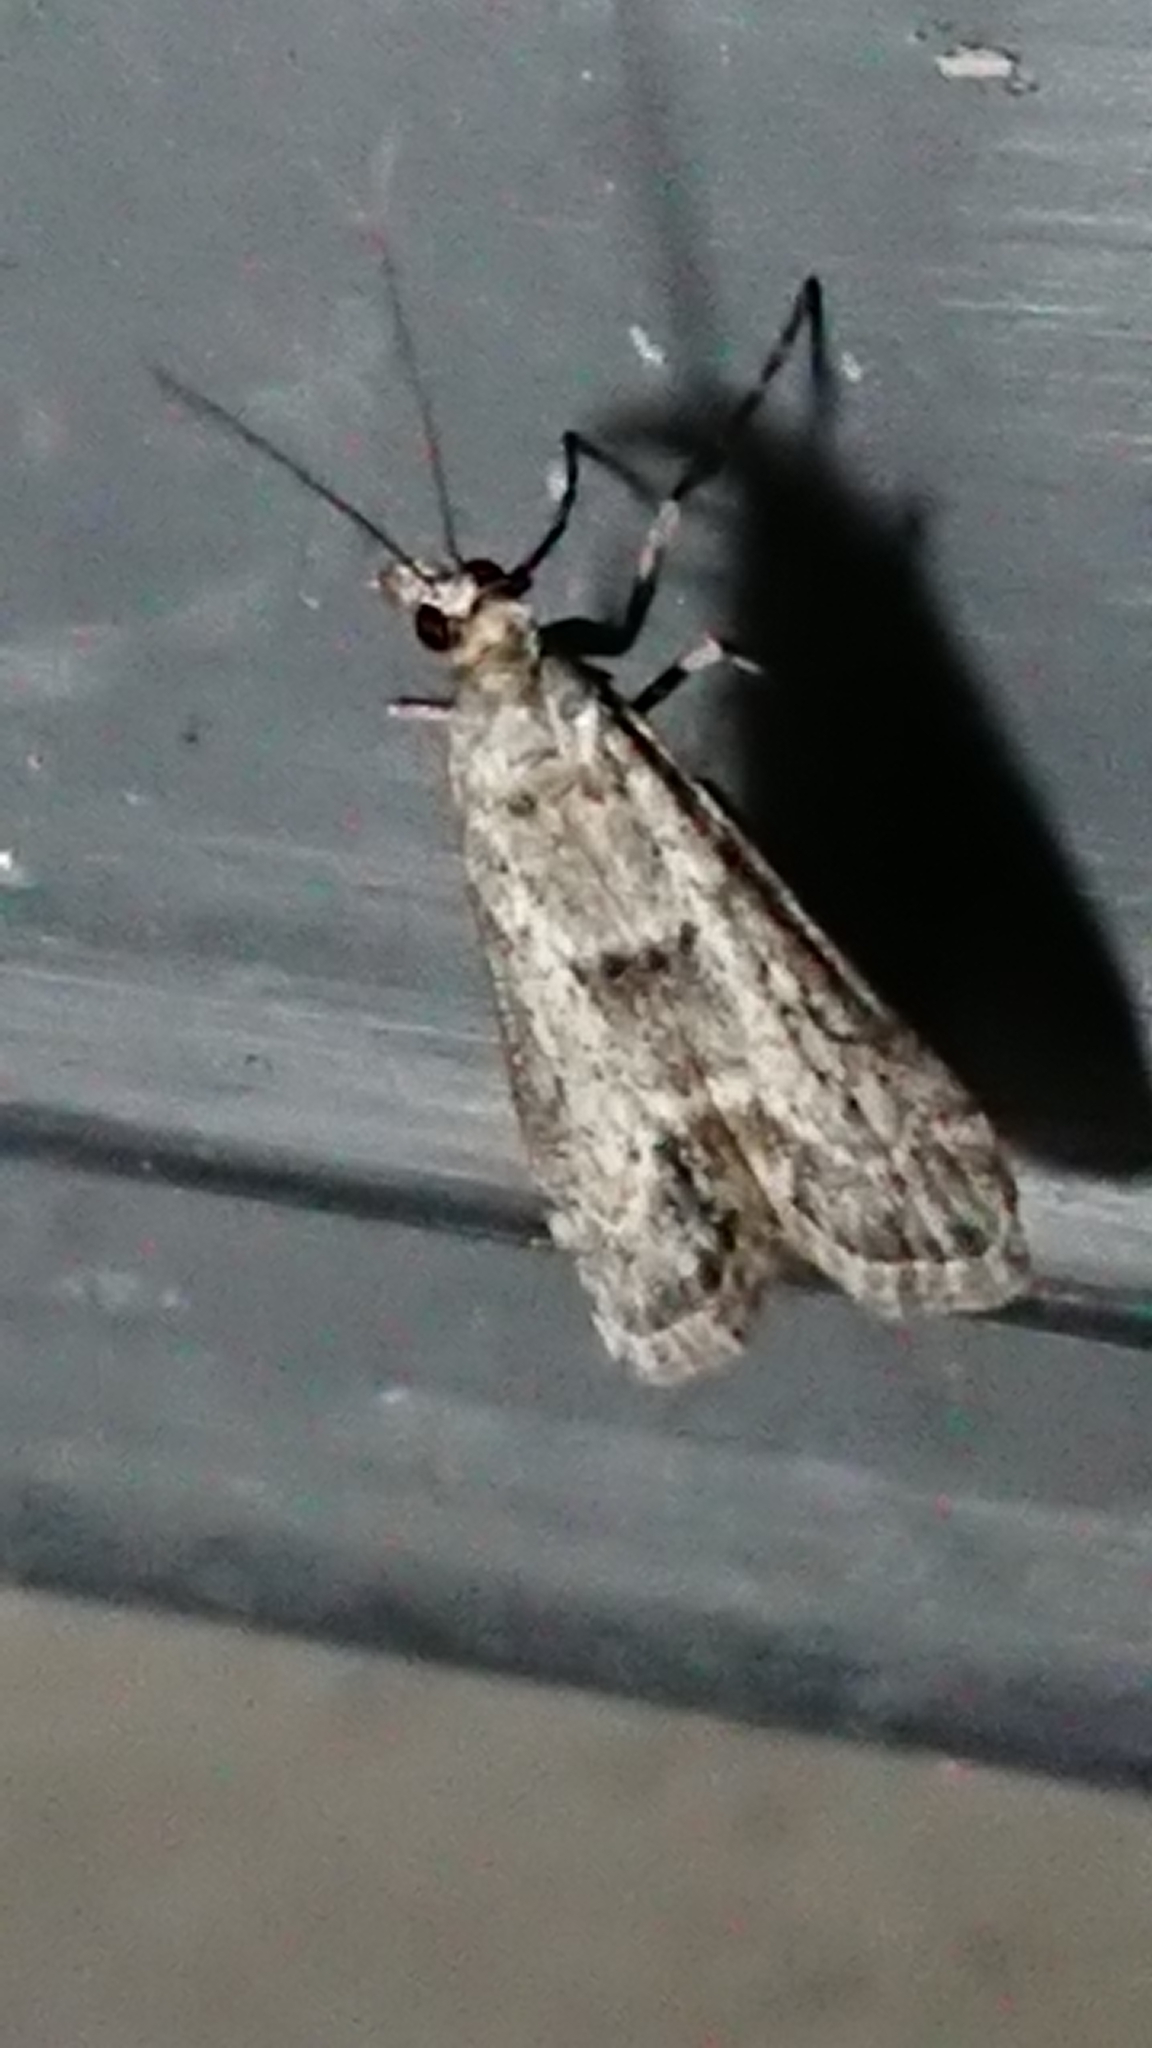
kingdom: Animalia
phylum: Arthropoda
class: Insecta
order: Lepidoptera
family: Crambidae
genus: Eudonia
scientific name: Eudonia leptalea
